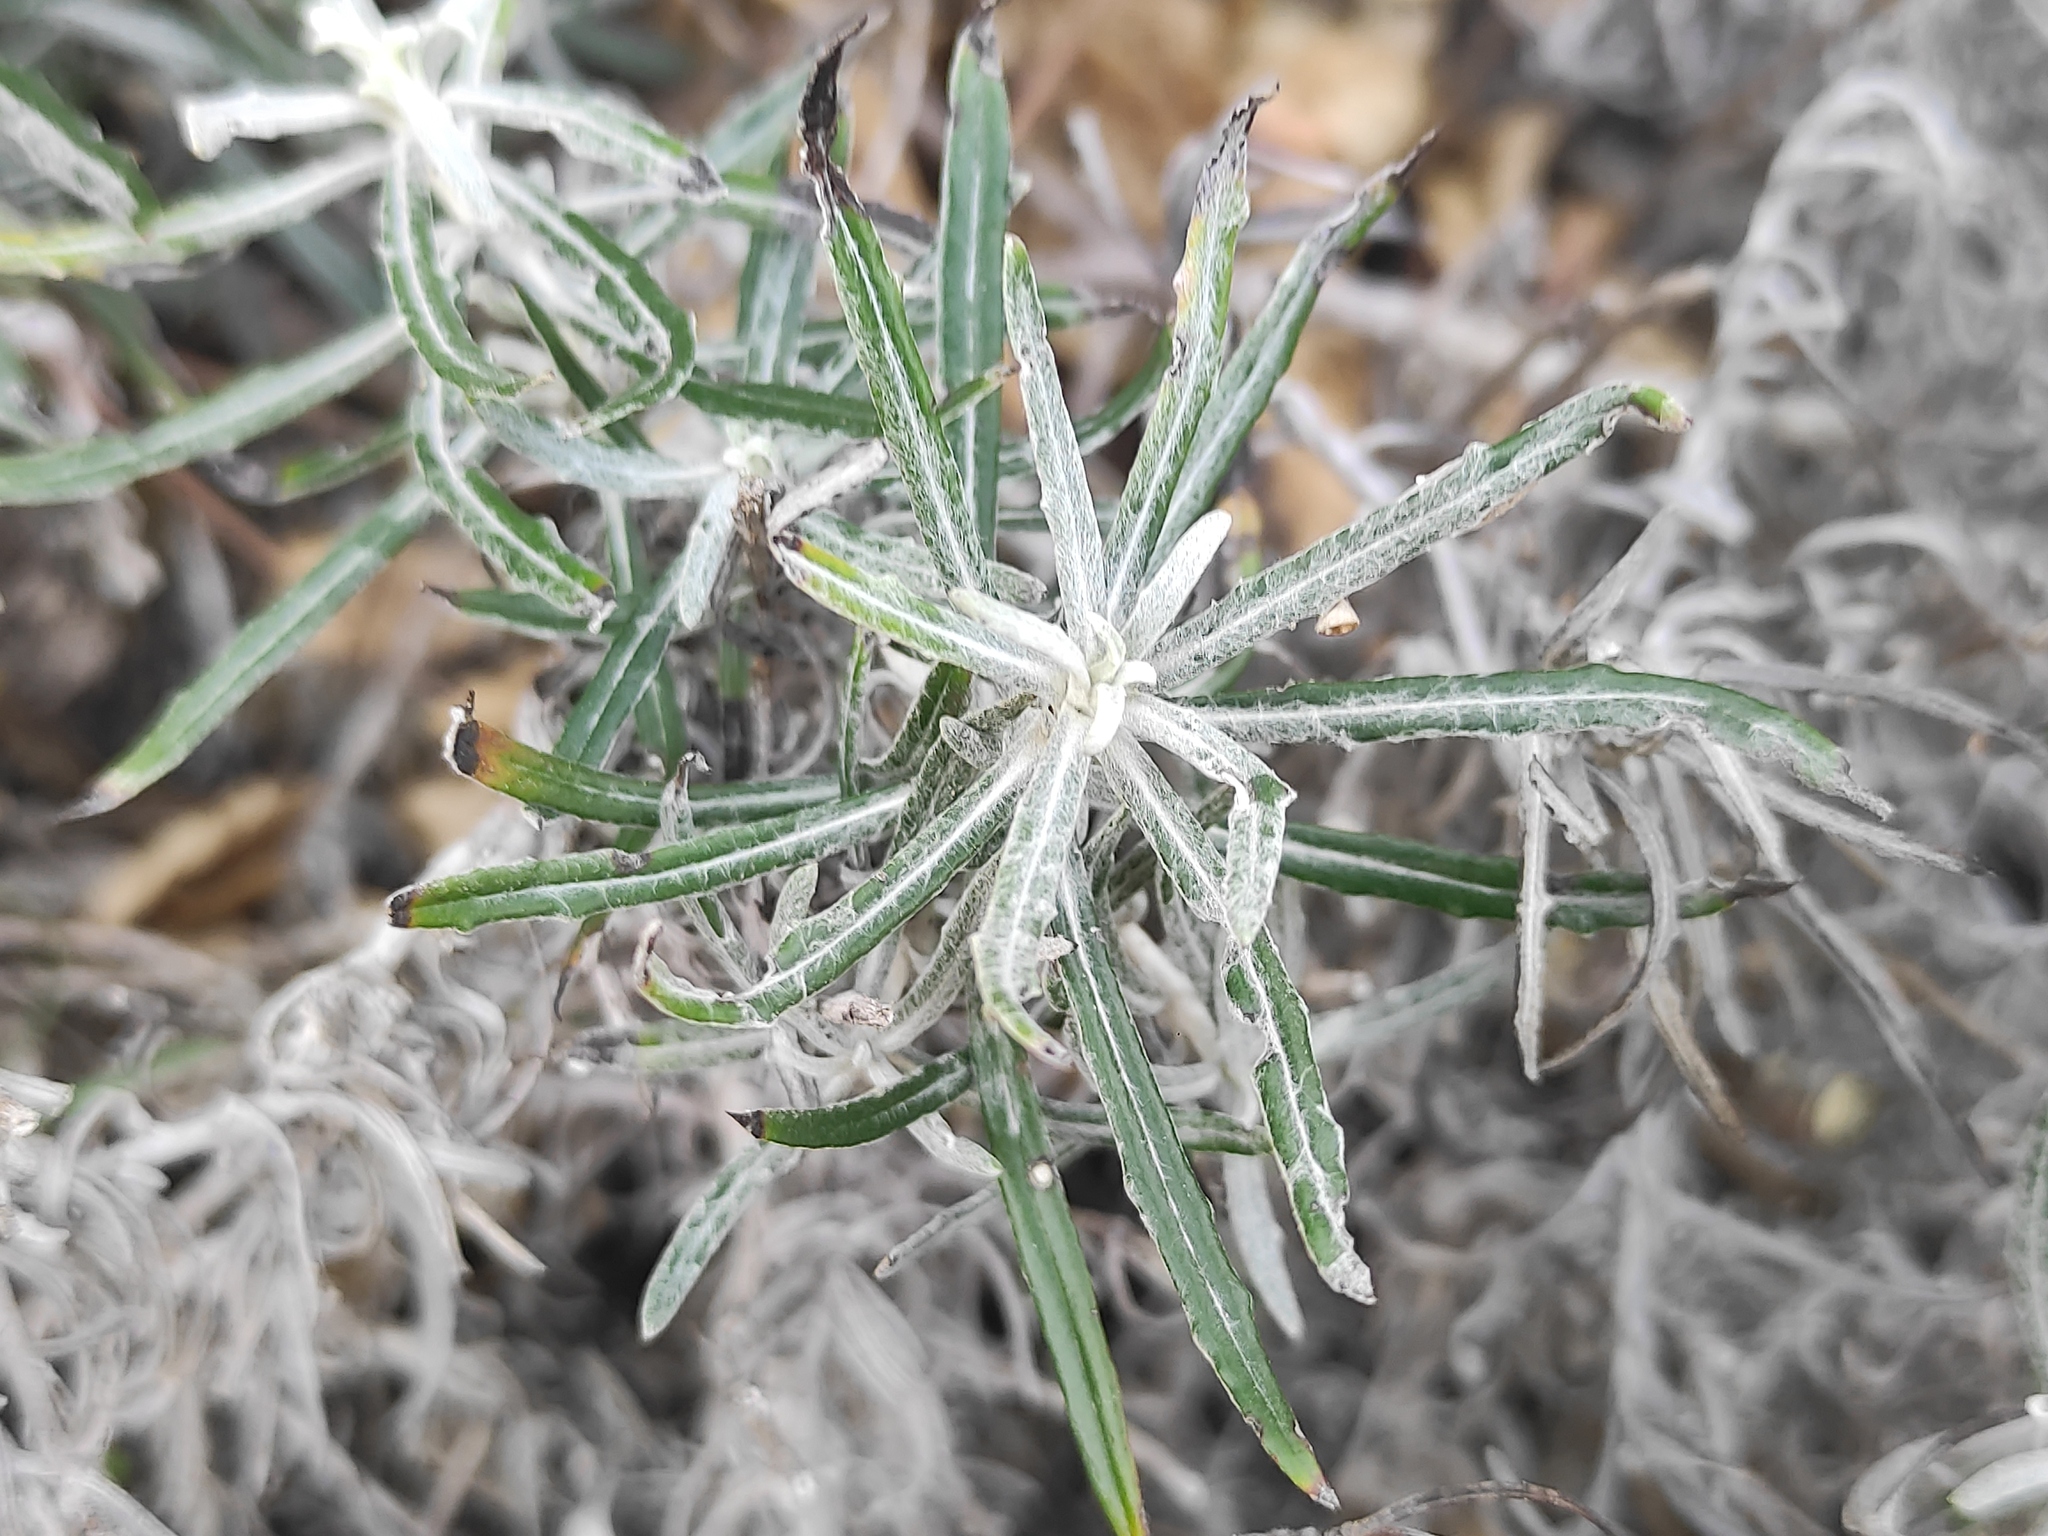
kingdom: Plantae
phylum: Tracheophyta
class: Magnoliopsida
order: Asterales
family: Asteraceae
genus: Staehelina
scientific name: Staehelina dubia
